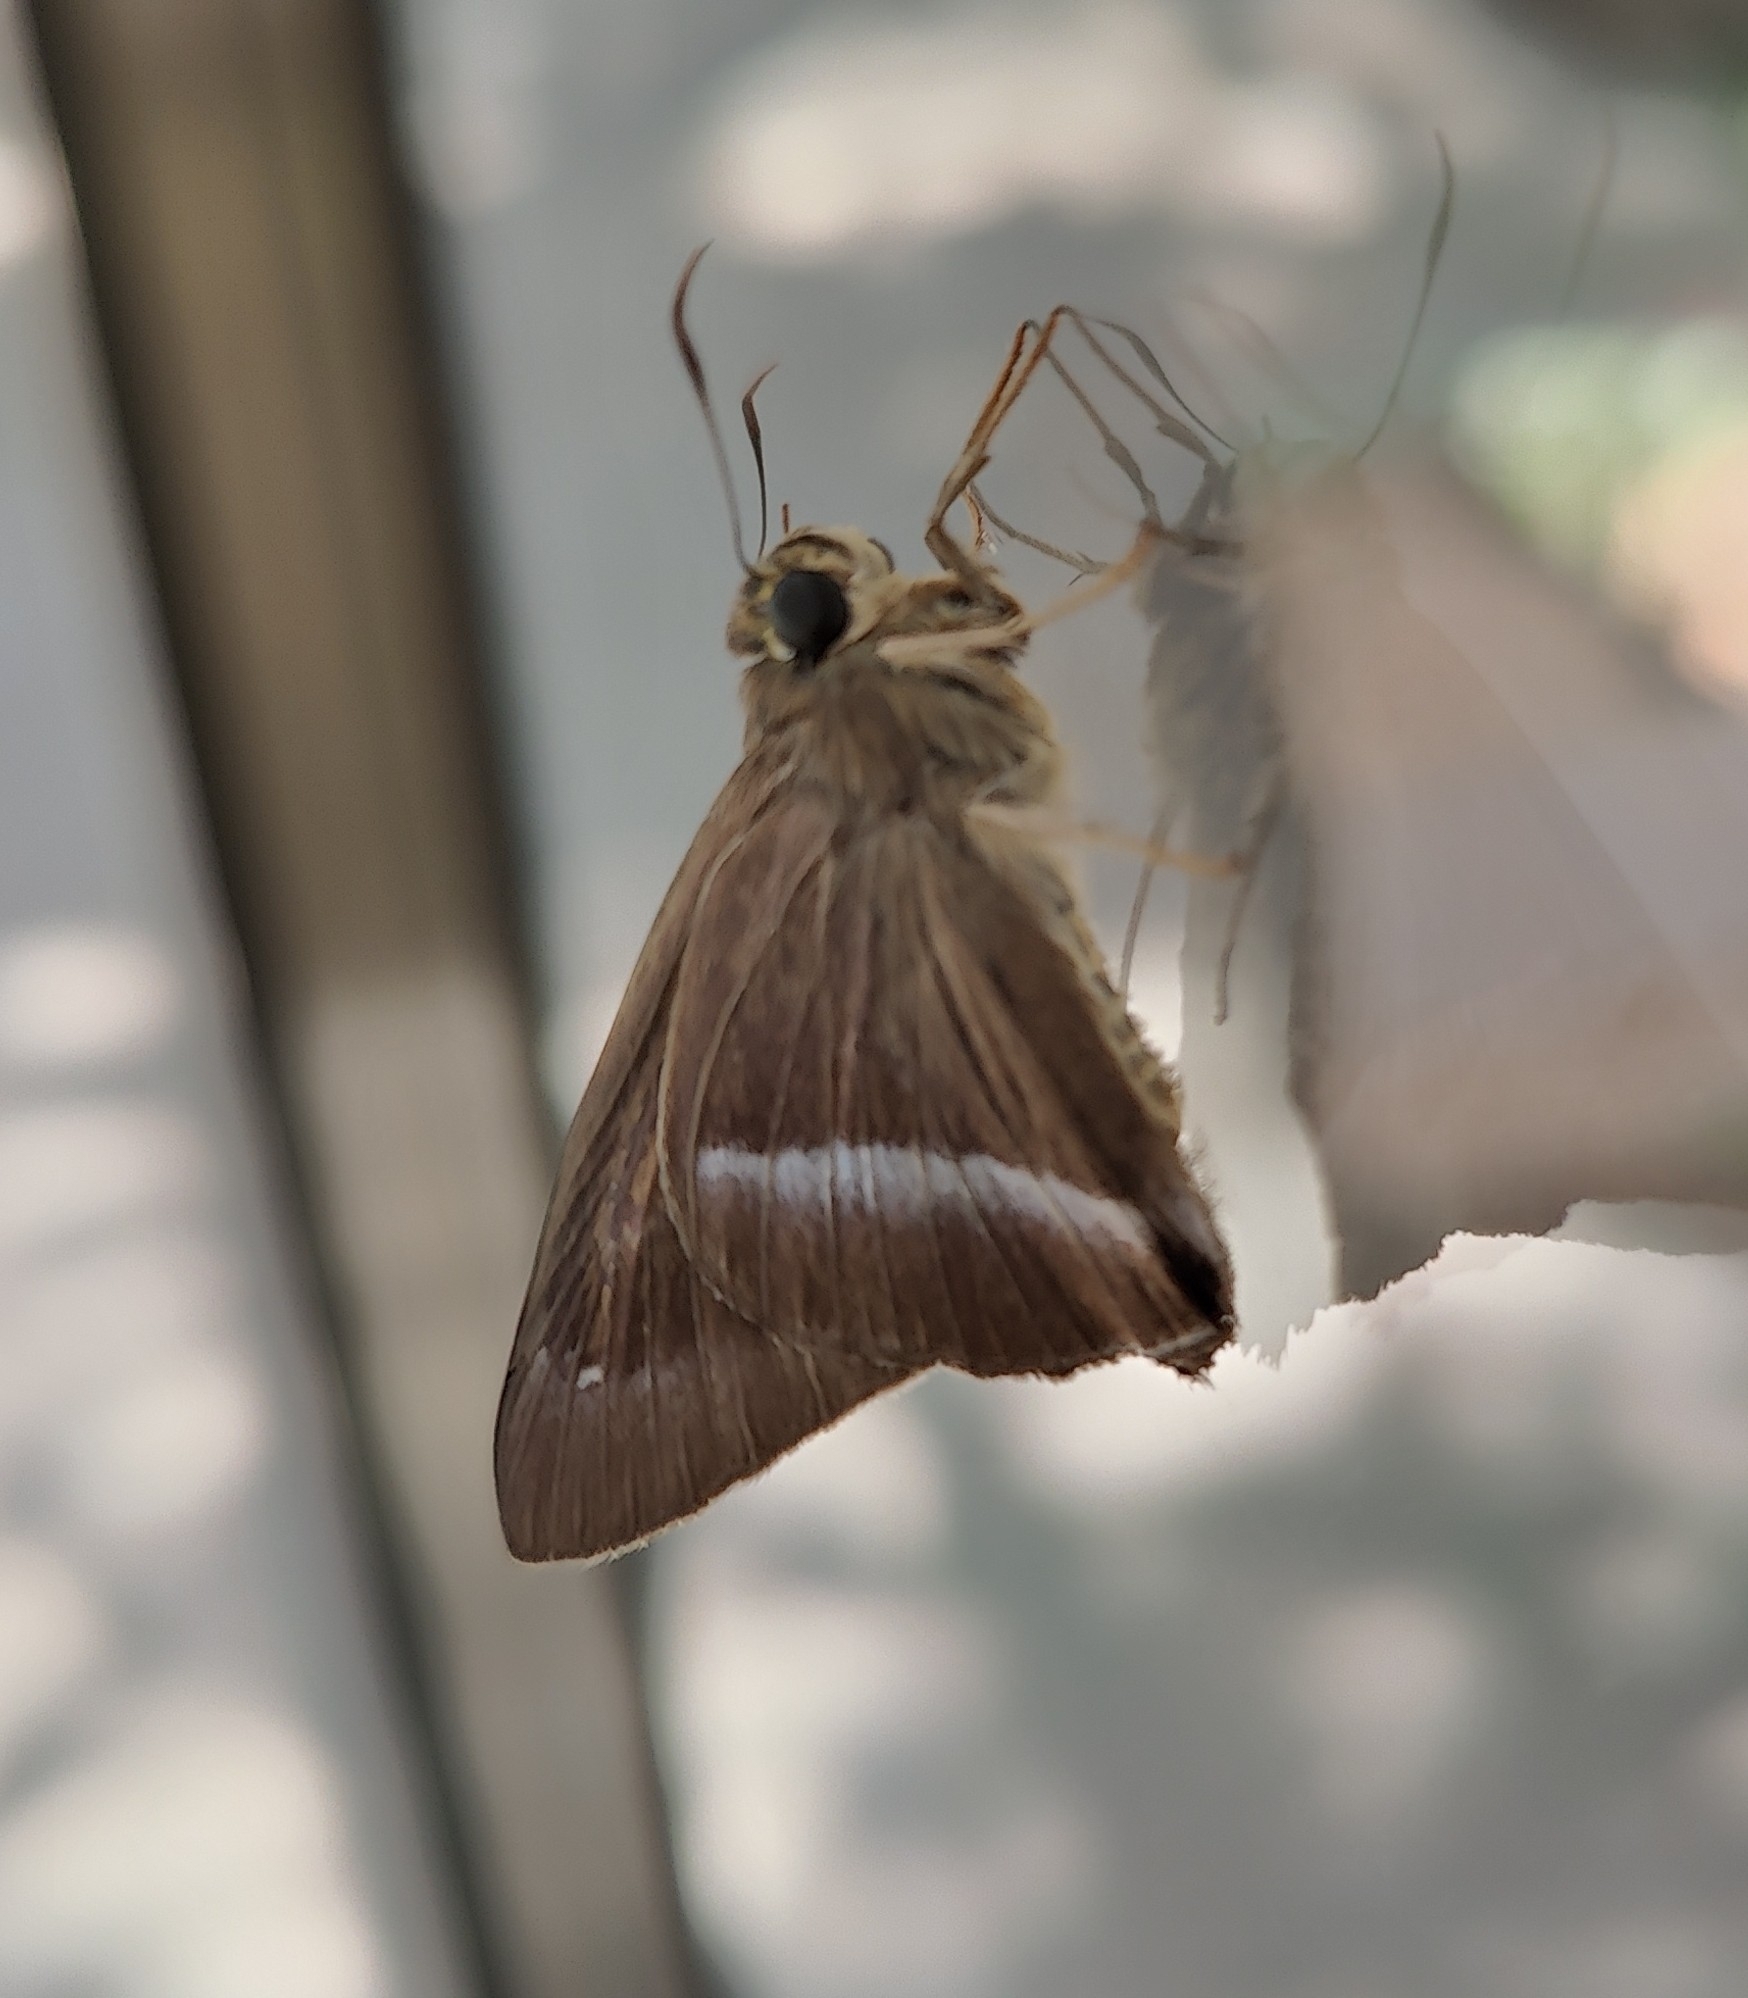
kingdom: Animalia
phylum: Arthropoda
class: Insecta
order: Lepidoptera
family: Hesperiidae
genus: Hasora
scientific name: Hasora chromus
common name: Common banded awl
